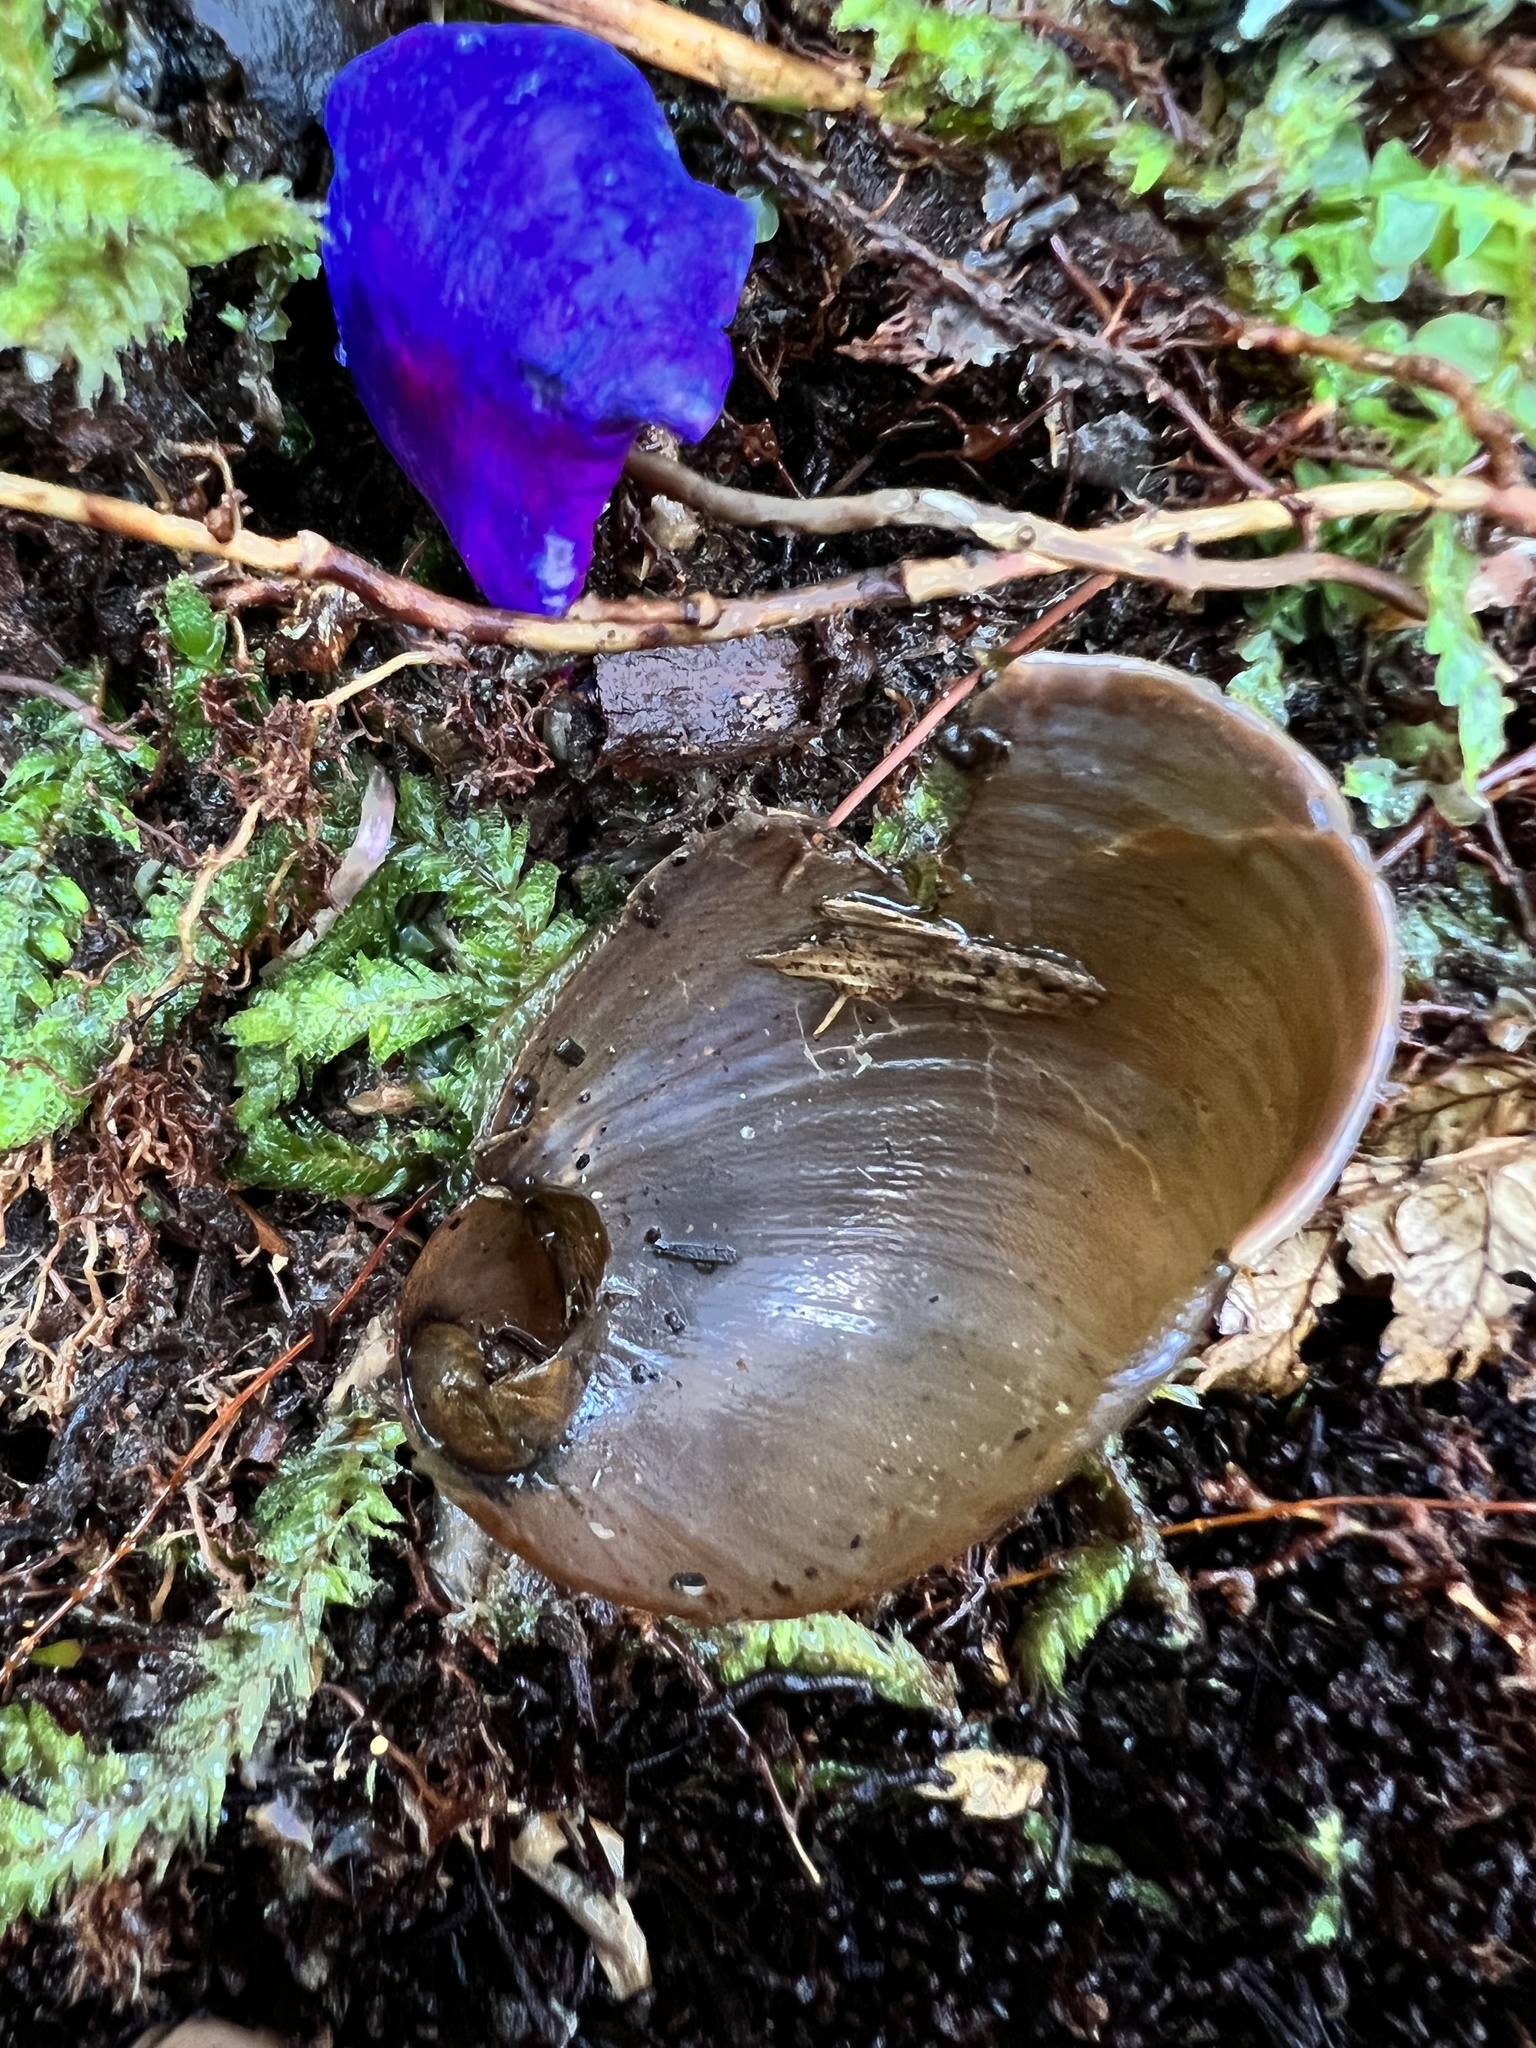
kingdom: Animalia
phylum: Mollusca
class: Gastropoda
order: Stylommatophora
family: Amphibulimidae
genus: Plekocheilus
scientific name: Plekocheilus
